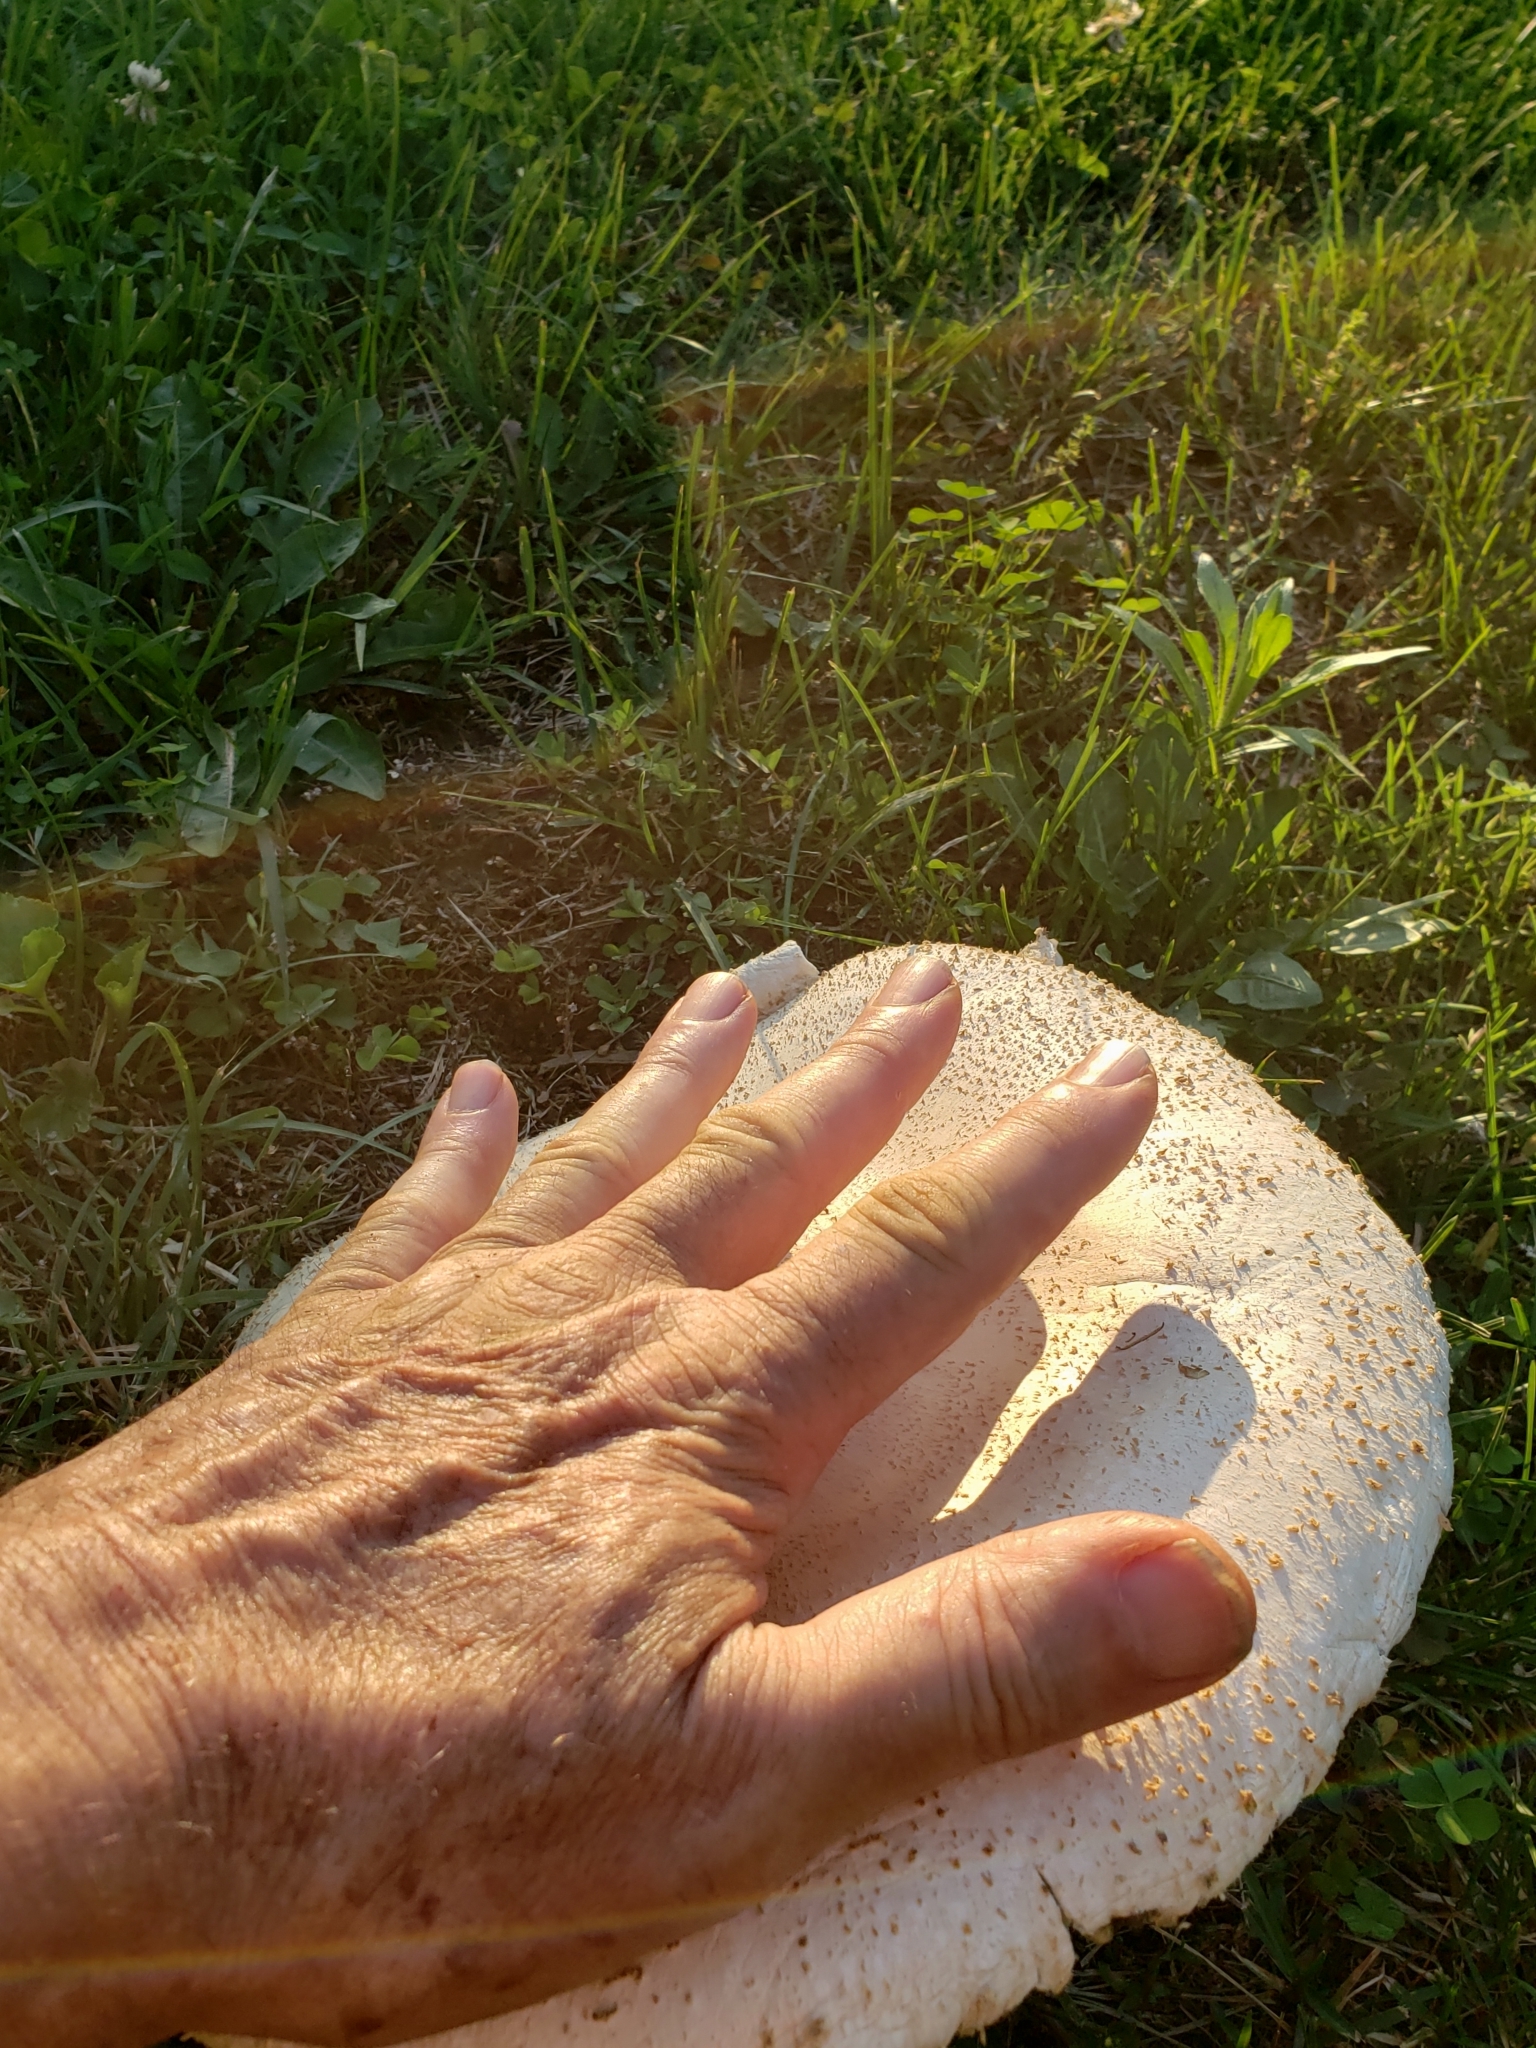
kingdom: Fungi
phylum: Basidiomycota
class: Agaricomycetes
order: Agaricales
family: Agaricaceae
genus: Chlorophyllum
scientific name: Chlorophyllum molybdites
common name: False parasol
